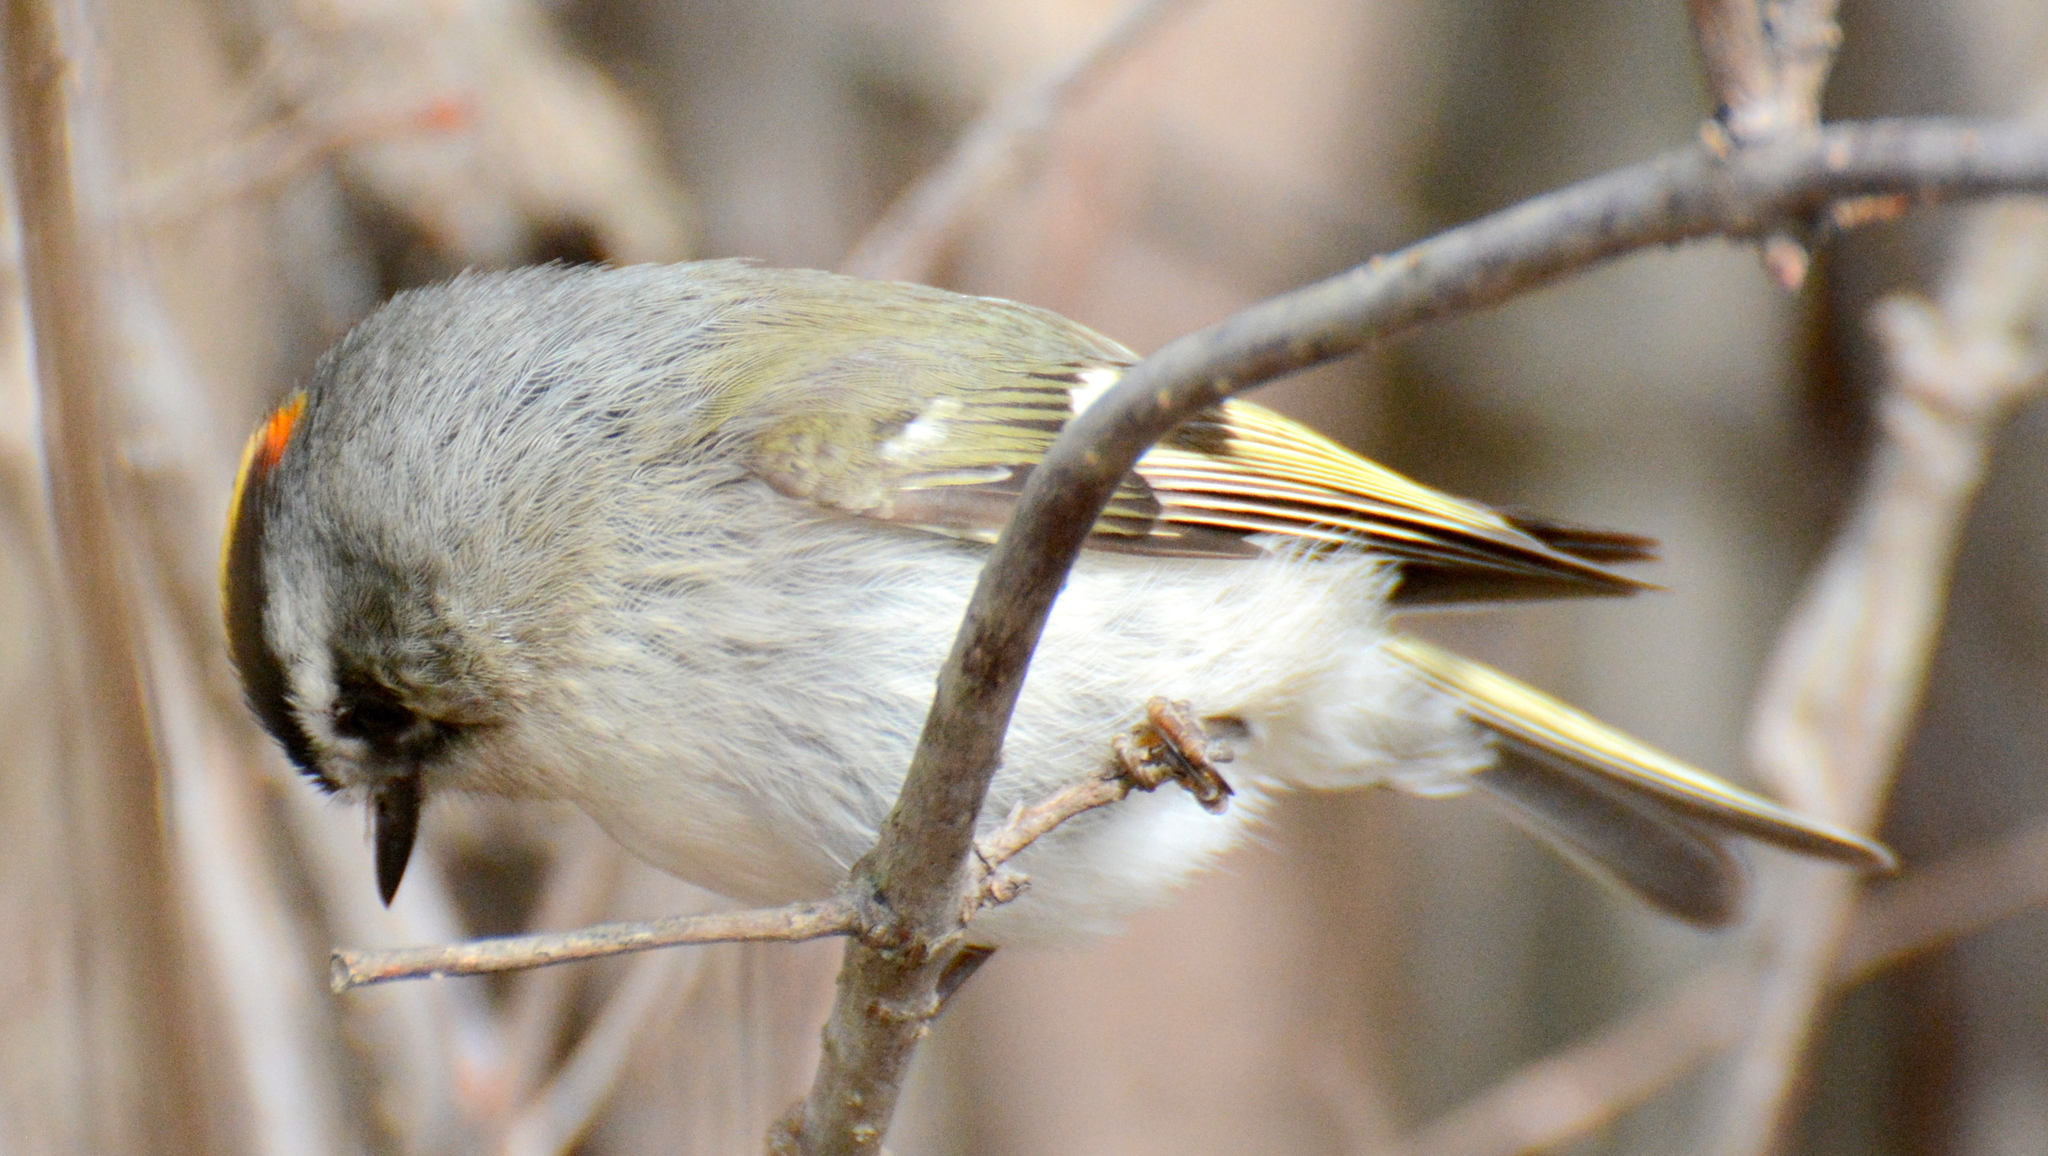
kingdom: Animalia
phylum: Chordata
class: Aves
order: Passeriformes
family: Regulidae
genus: Regulus
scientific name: Regulus satrapa
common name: Golden-crowned kinglet
